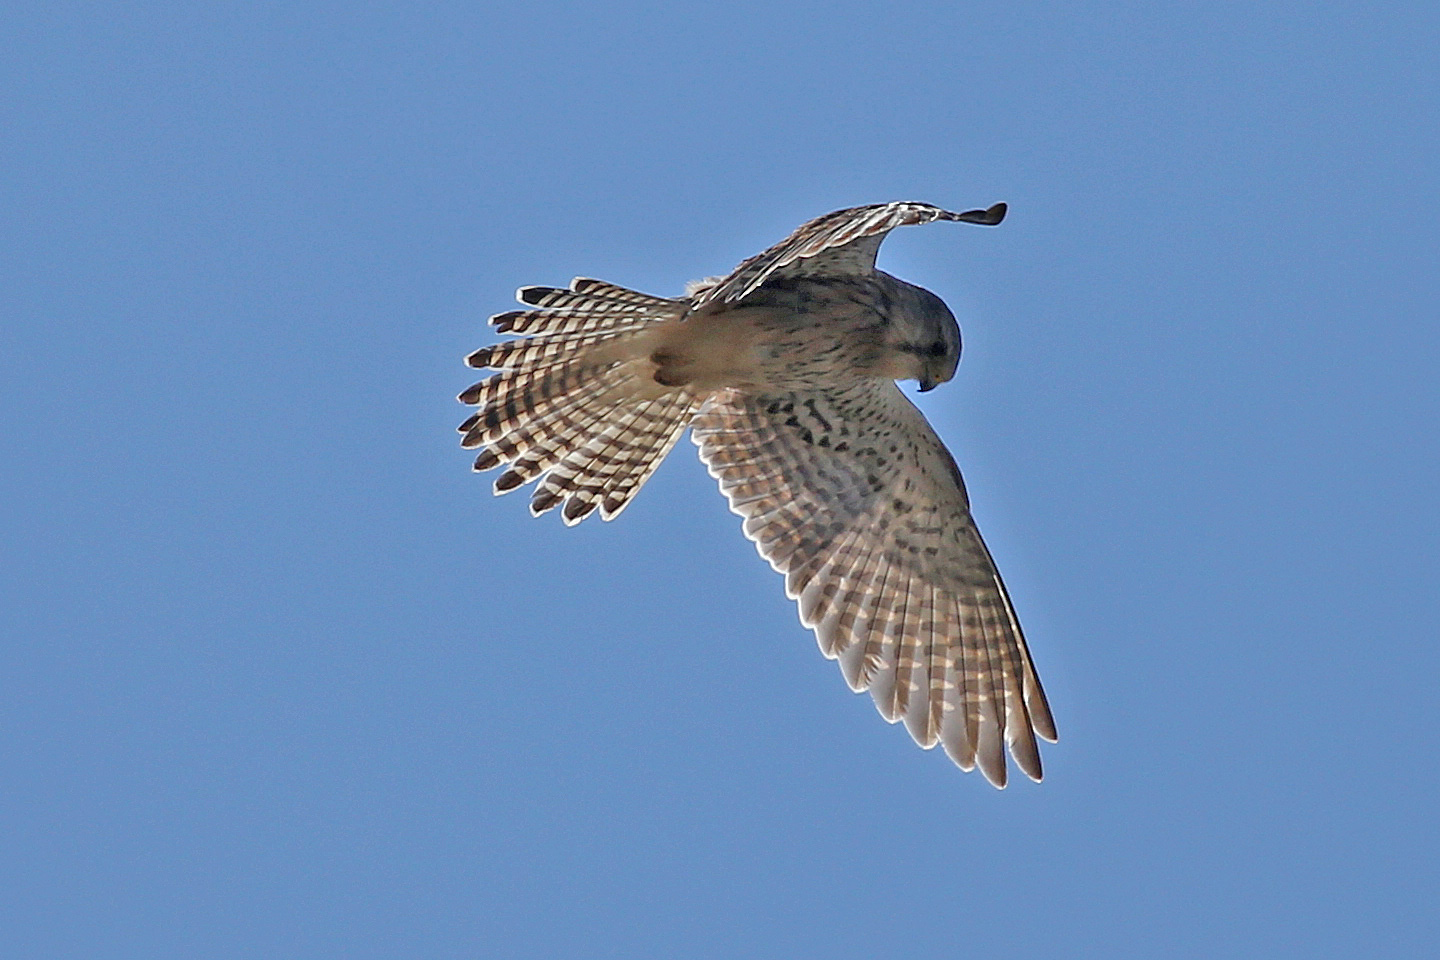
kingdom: Animalia
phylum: Chordata
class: Aves
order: Falconiformes
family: Falconidae
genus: Falco
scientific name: Falco tinnunculus
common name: Common kestrel
